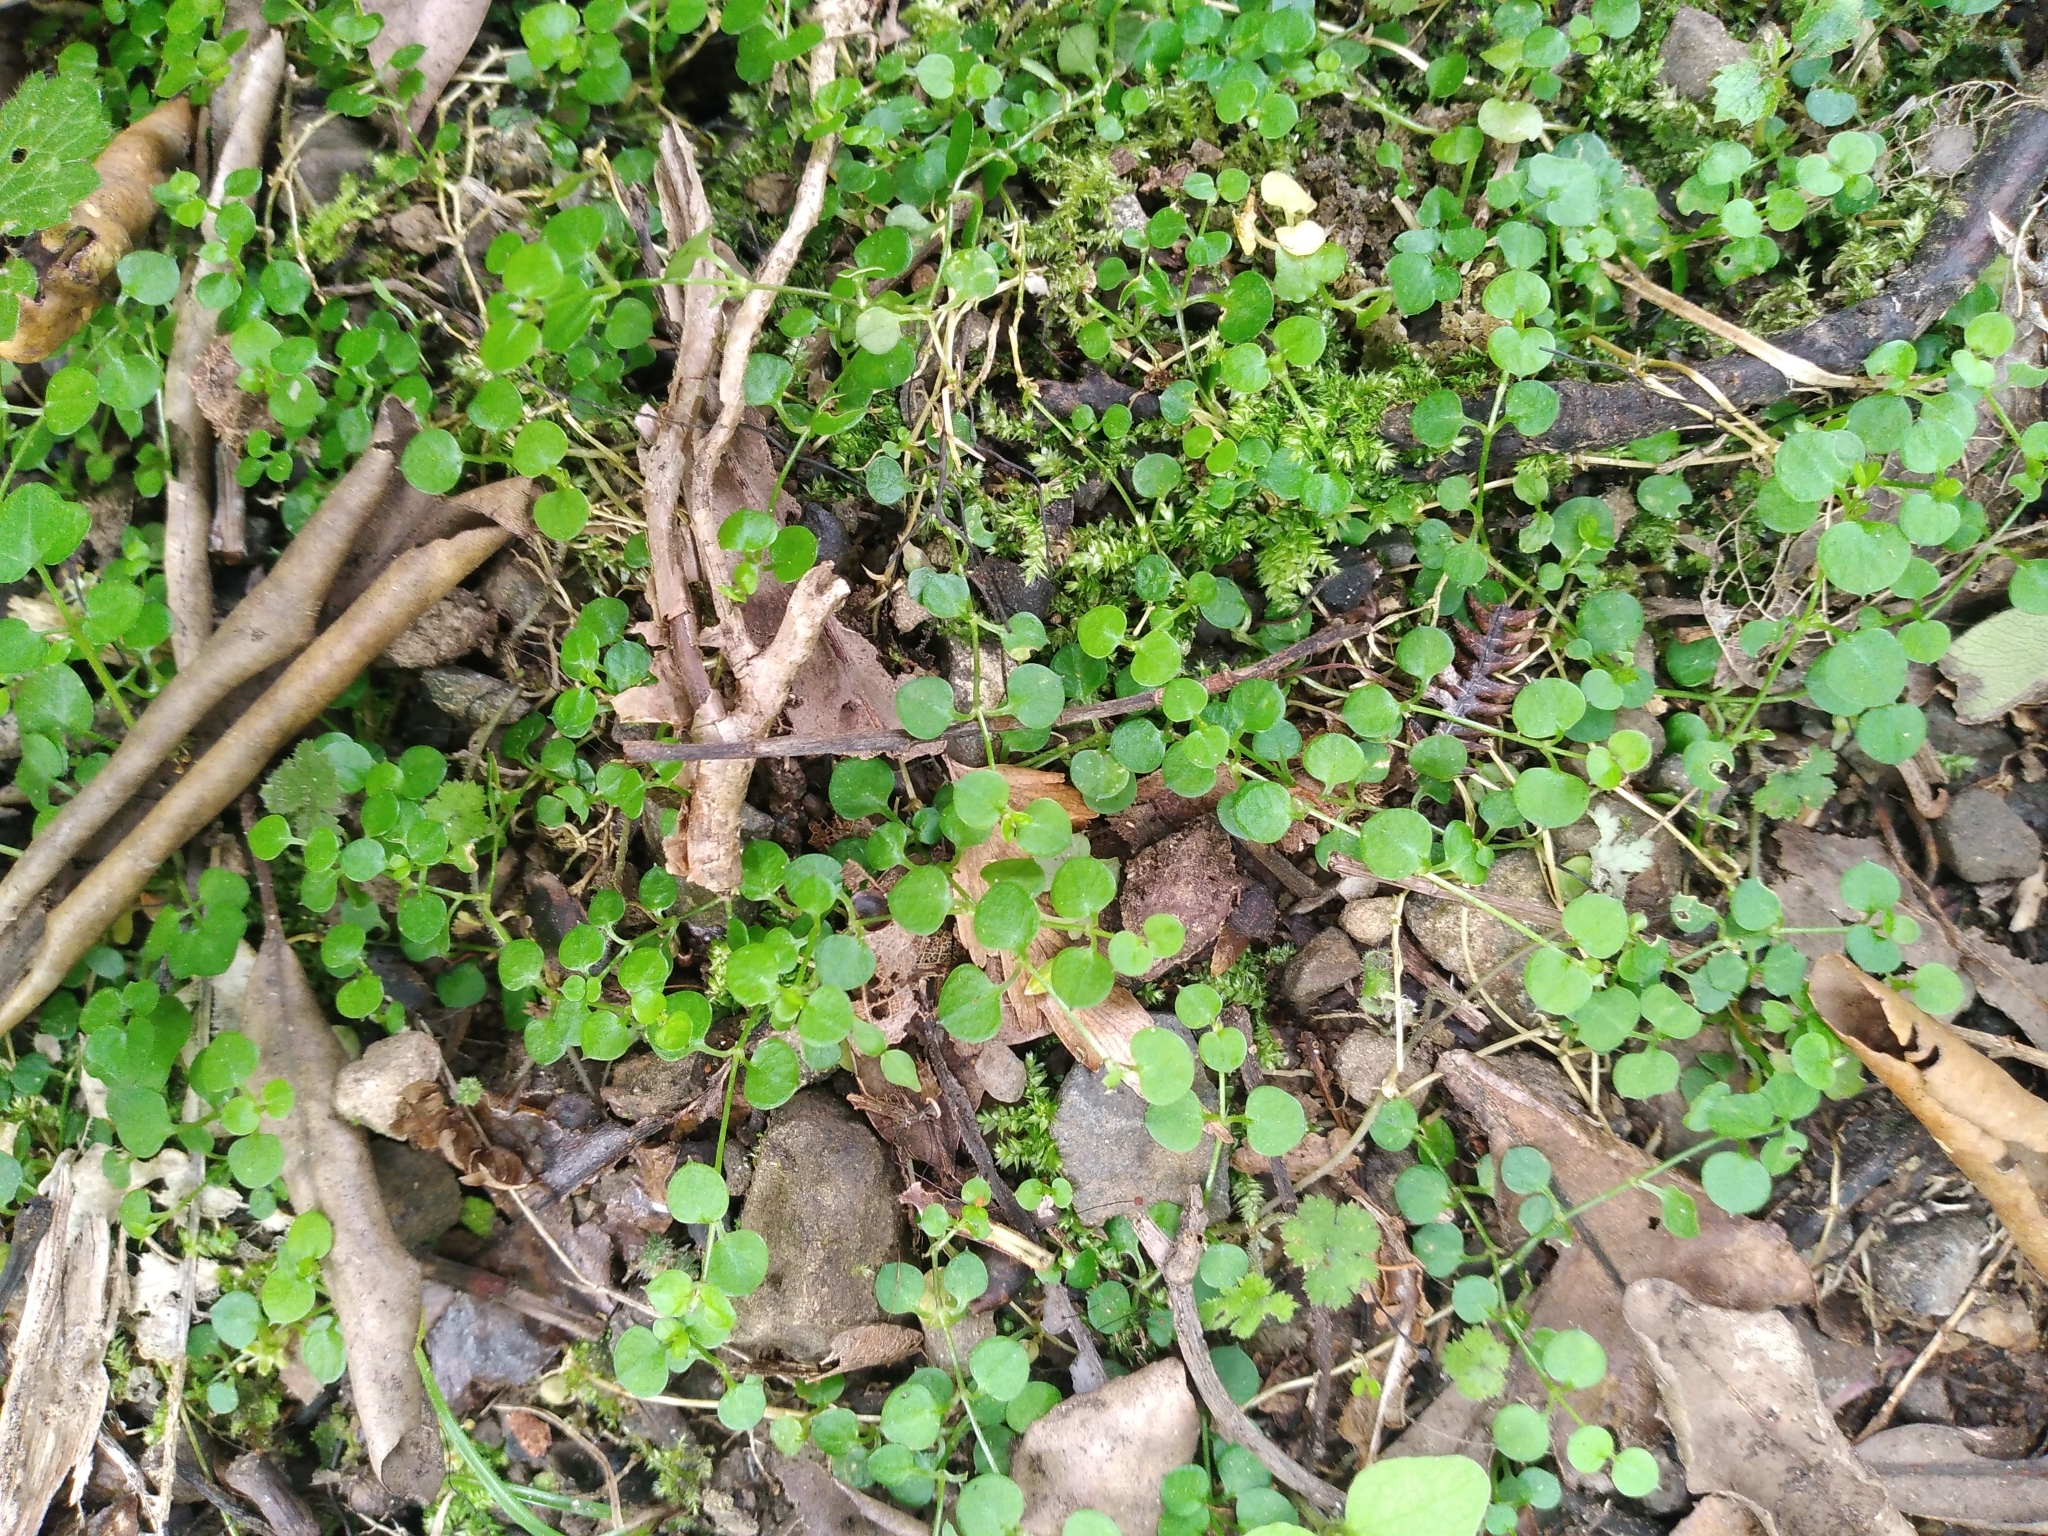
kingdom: Plantae
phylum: Tracheophyta
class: Magnoliopsida
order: Caryophyllales
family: Caryophyllaceae
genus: Stellaria
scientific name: Stellaria parviflora
